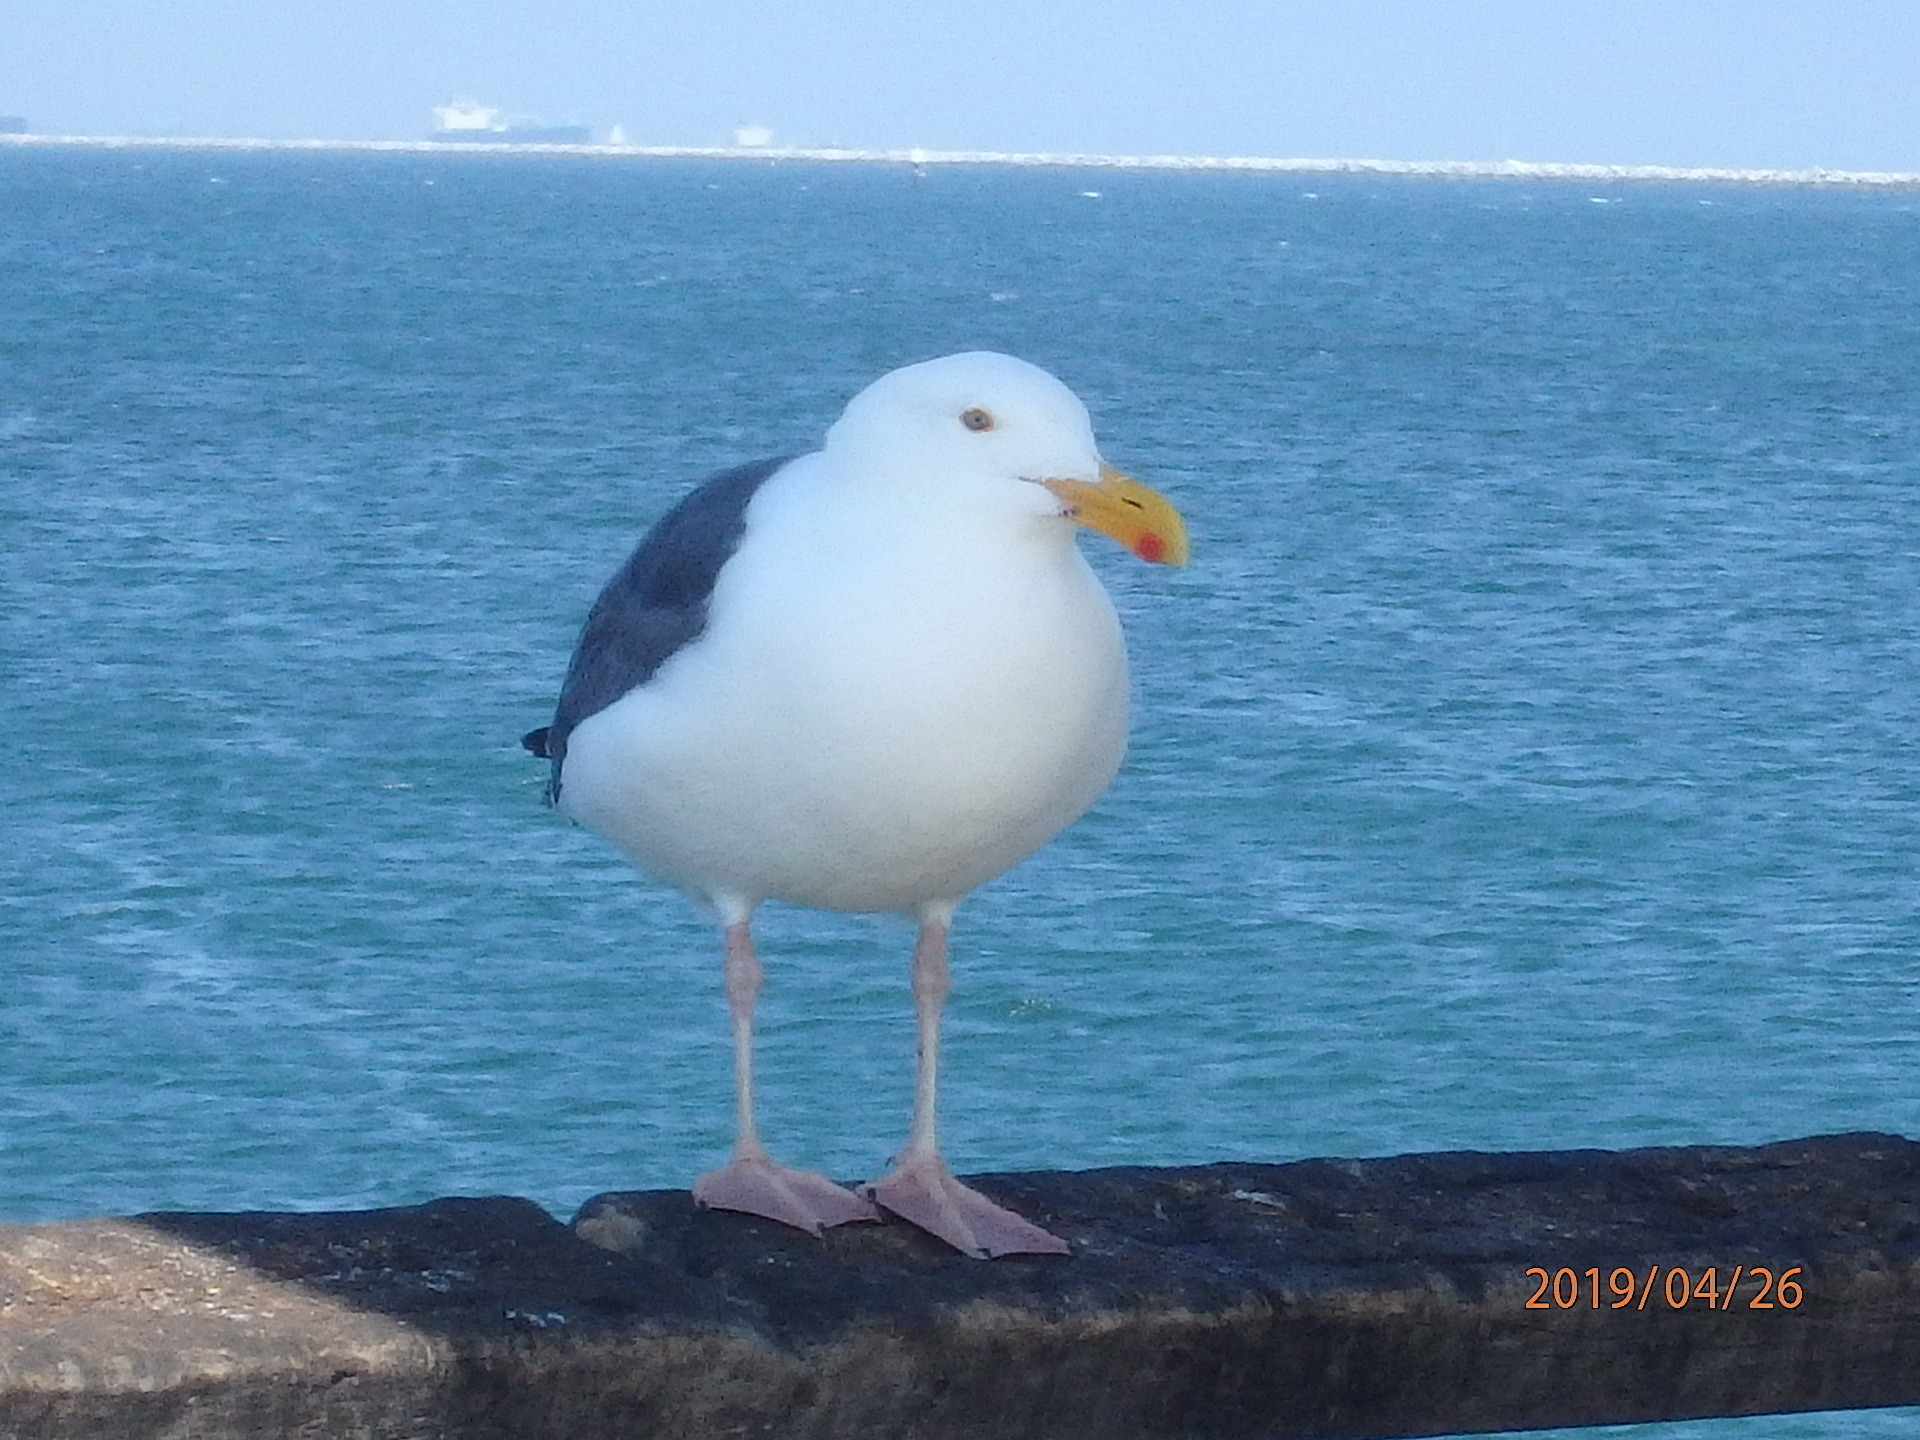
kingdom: Animalia
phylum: Chordata
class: Aves
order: Charadriiformes
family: Laridae
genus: Larus
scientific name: Larus occidentalis
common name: Western gull
